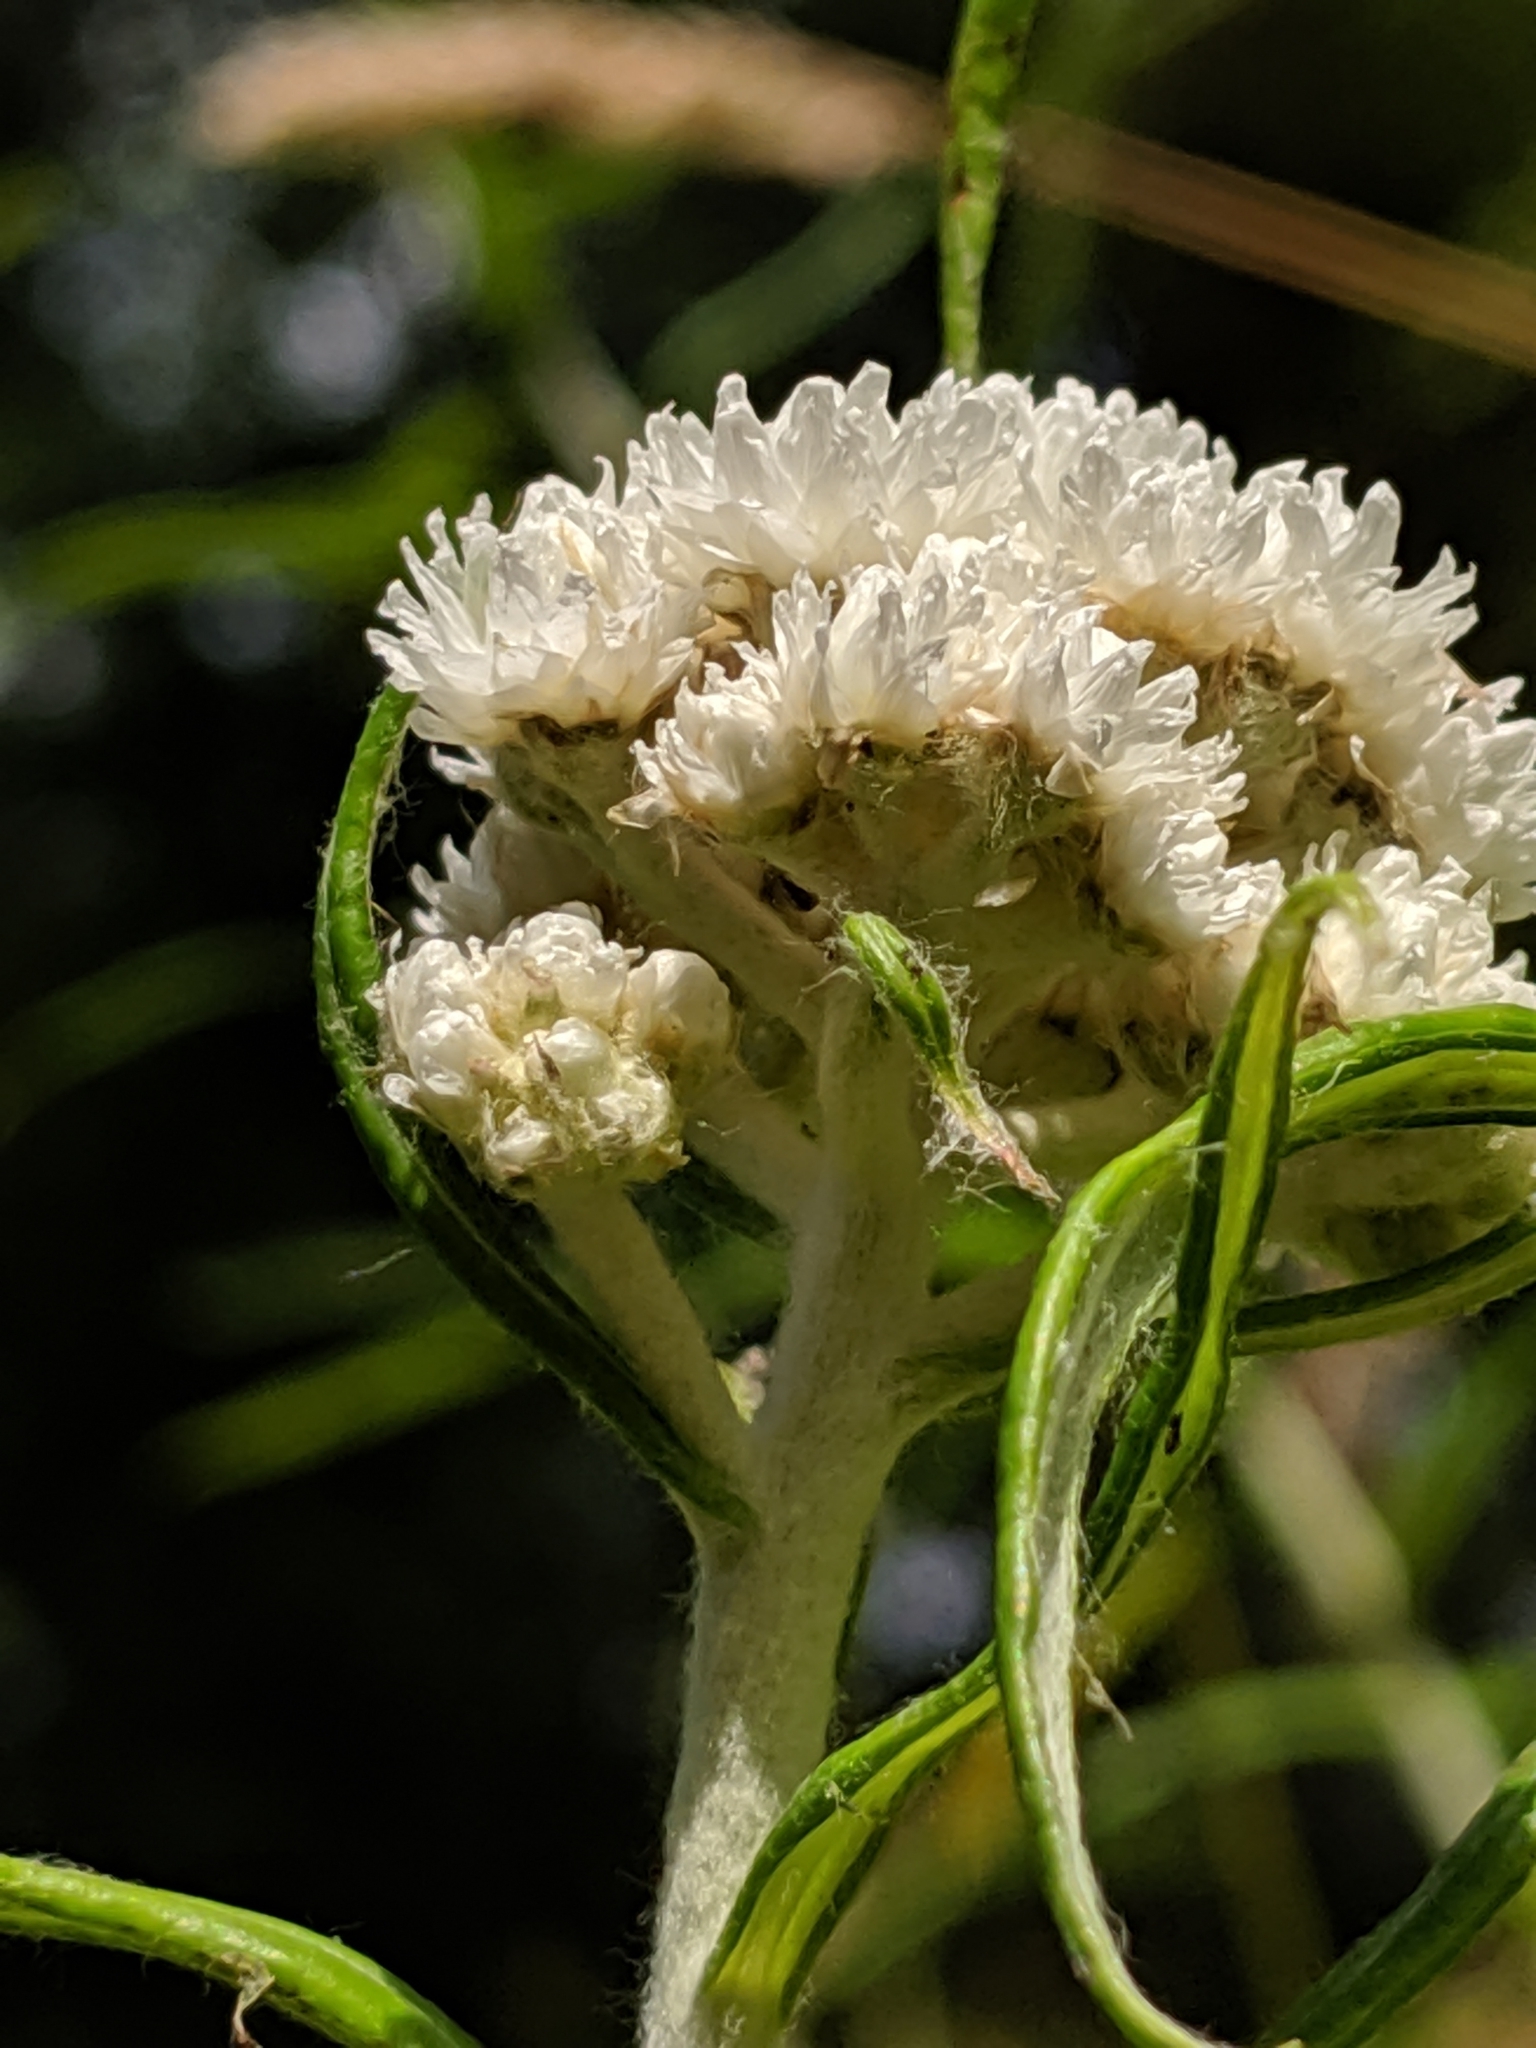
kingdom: Plantae
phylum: Tracheophyta
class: Magnoliopsida
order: Asterales
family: Asteraceae
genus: Anaphalis
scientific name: Anaphalis margaritacea
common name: Pearly everlasting
